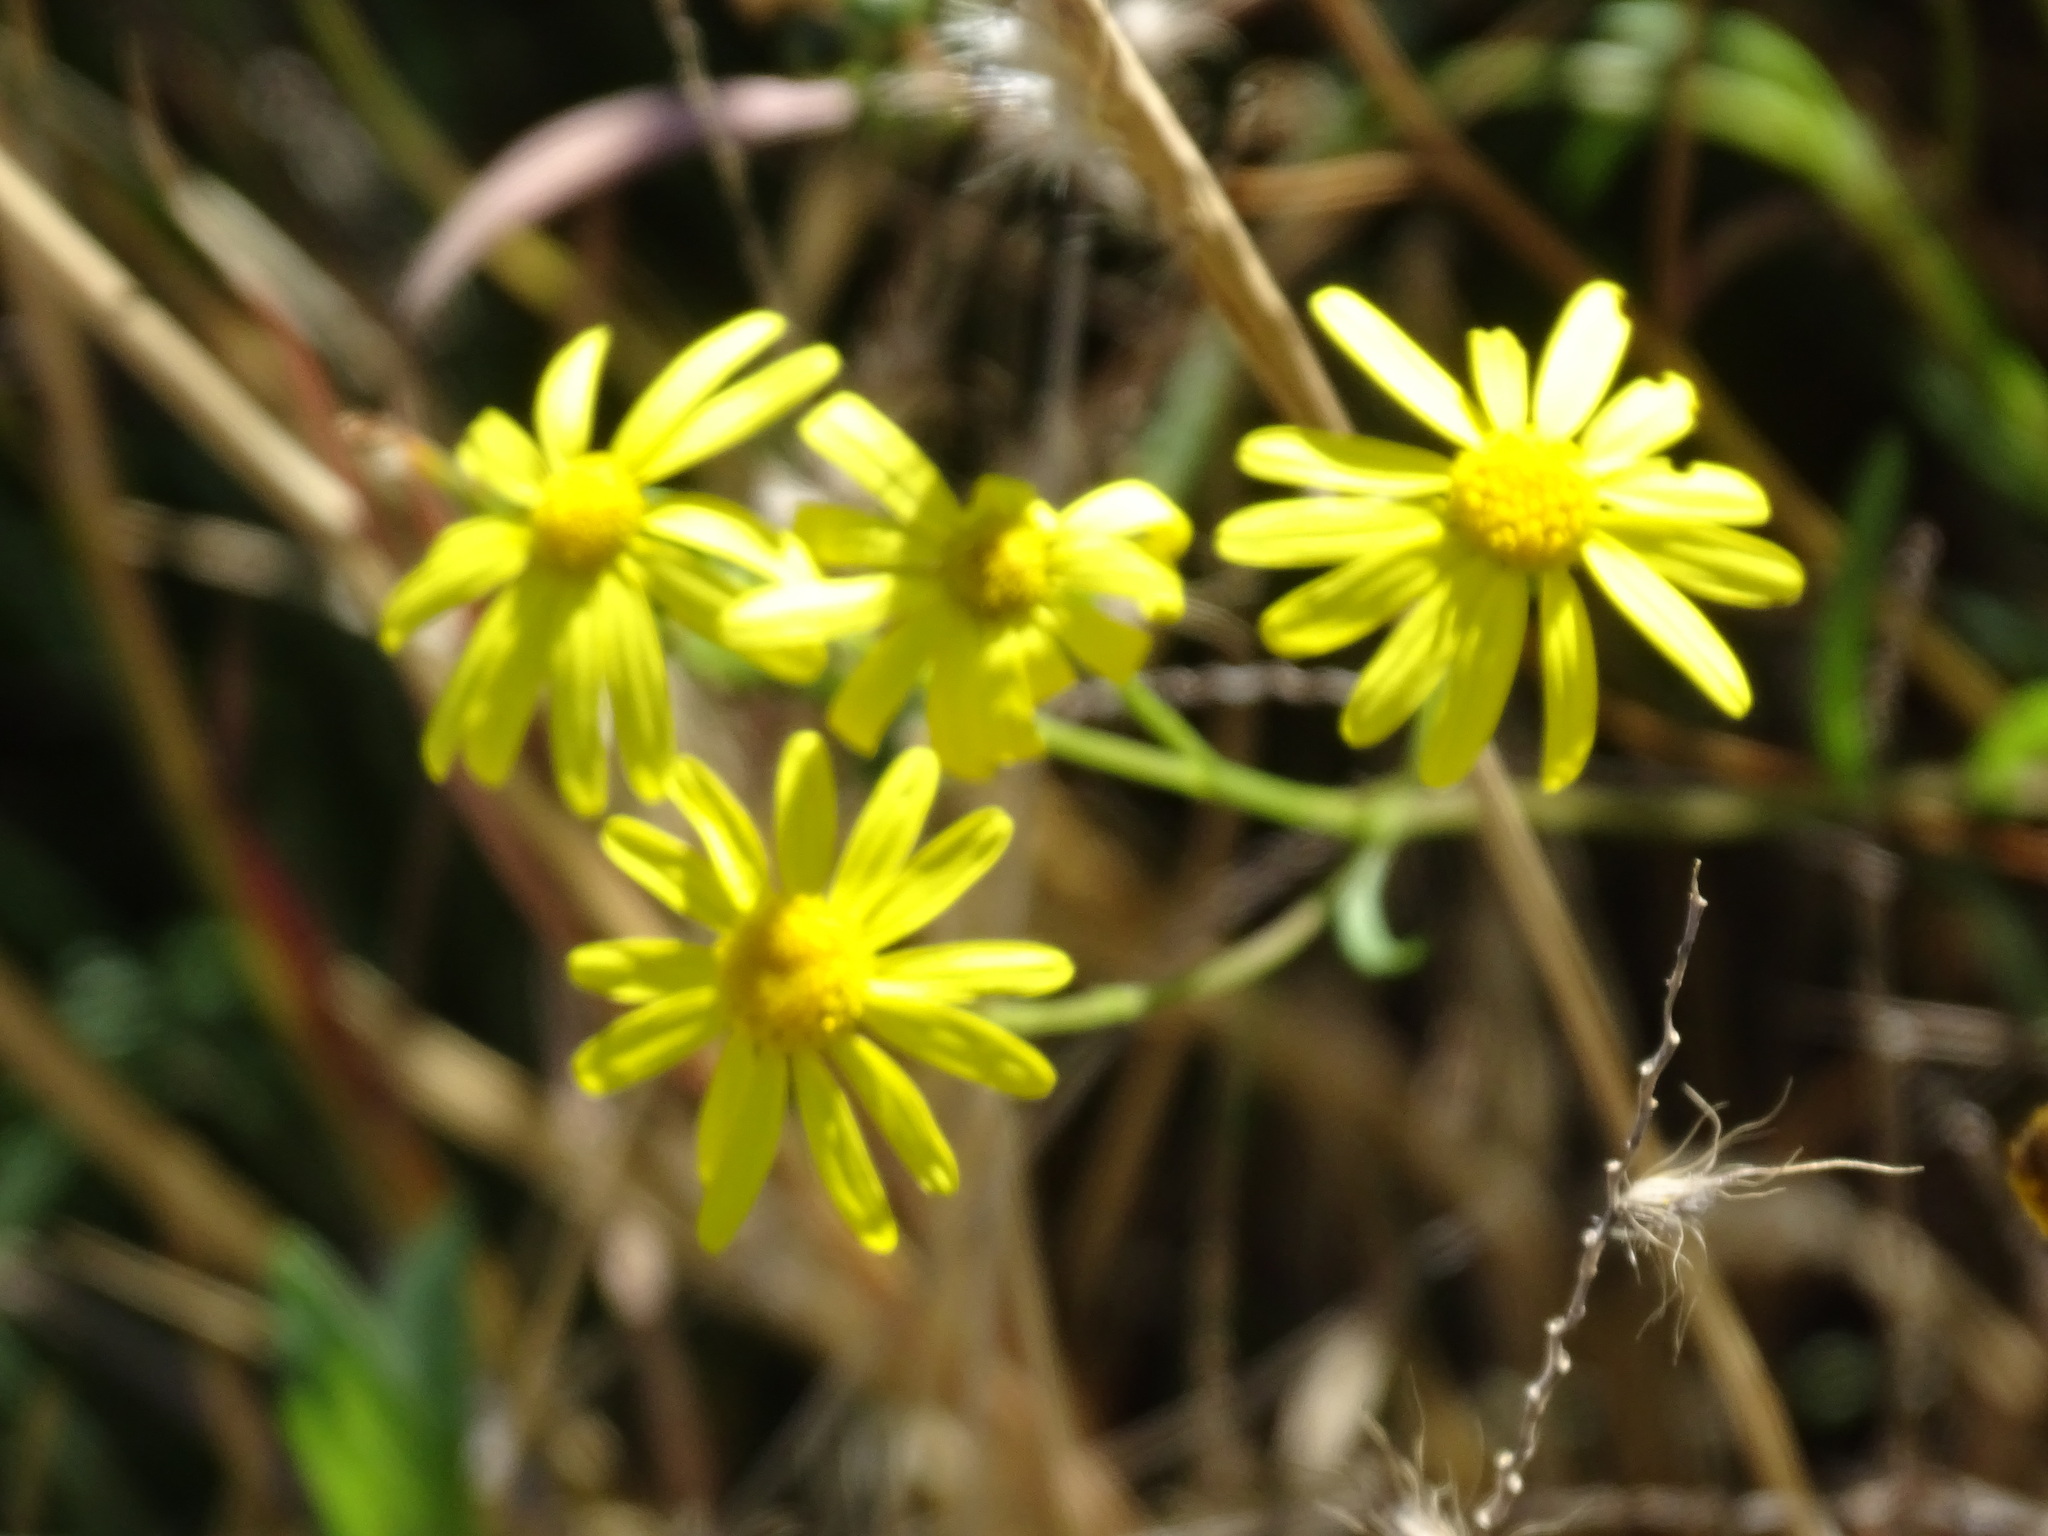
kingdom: Plantae
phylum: Tracheophyta
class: Magnoliopsida
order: Asterales
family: Asteraceae
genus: Senecio
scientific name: Senecio inaequidens
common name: Narrow-leaved ragwort
